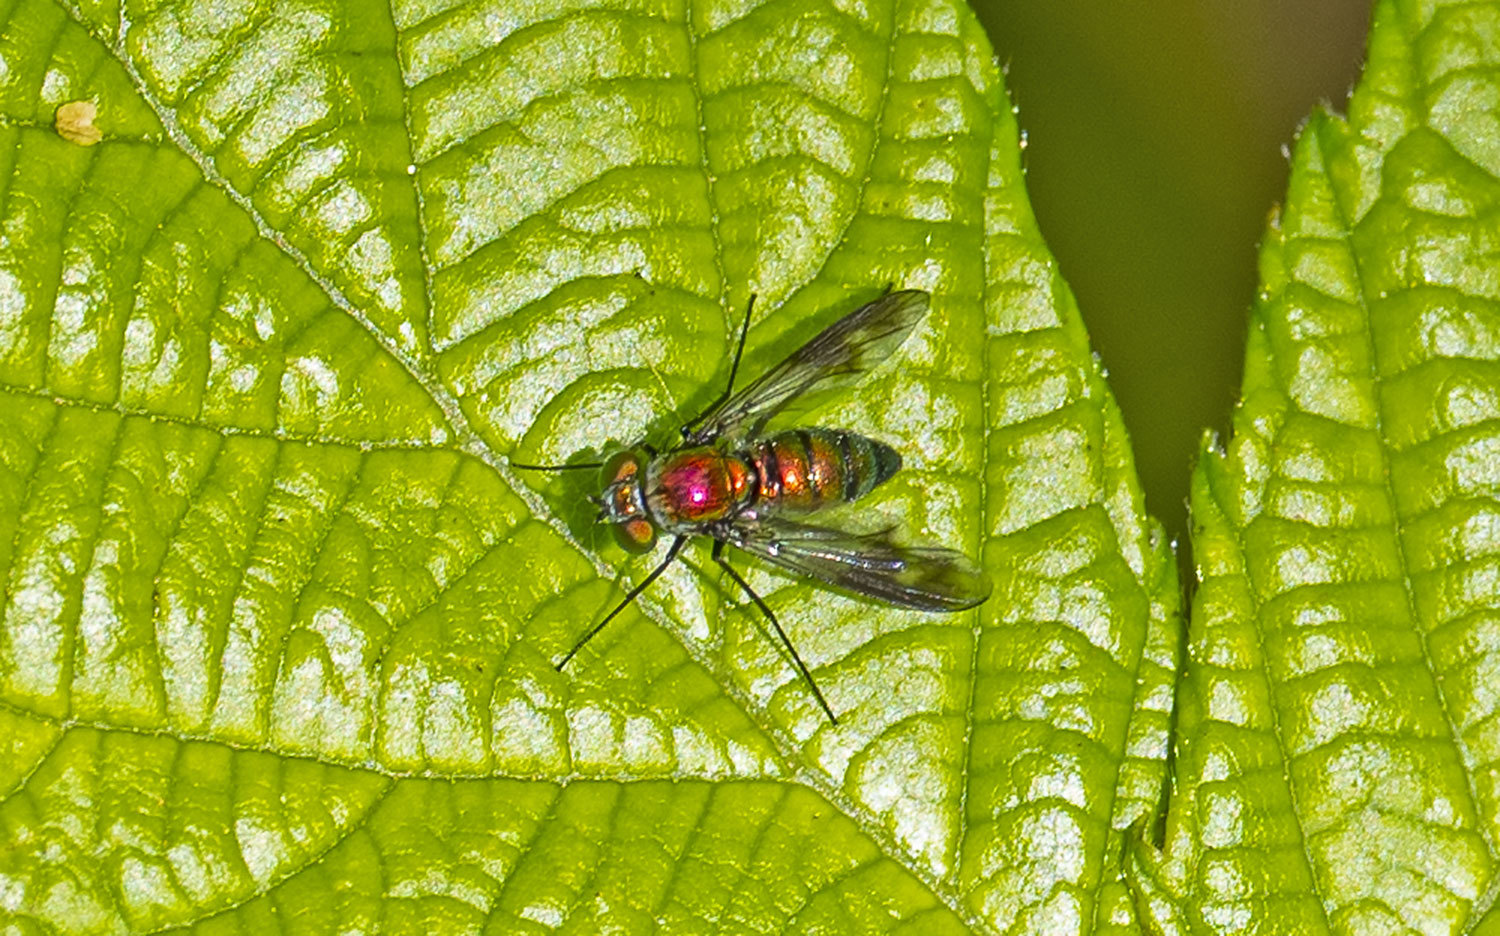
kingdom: Animalia
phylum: Arthropoda
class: Insecta
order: Diptera
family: Dolichopodidae
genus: Condylostylus
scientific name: Condylostylus patibulatus
